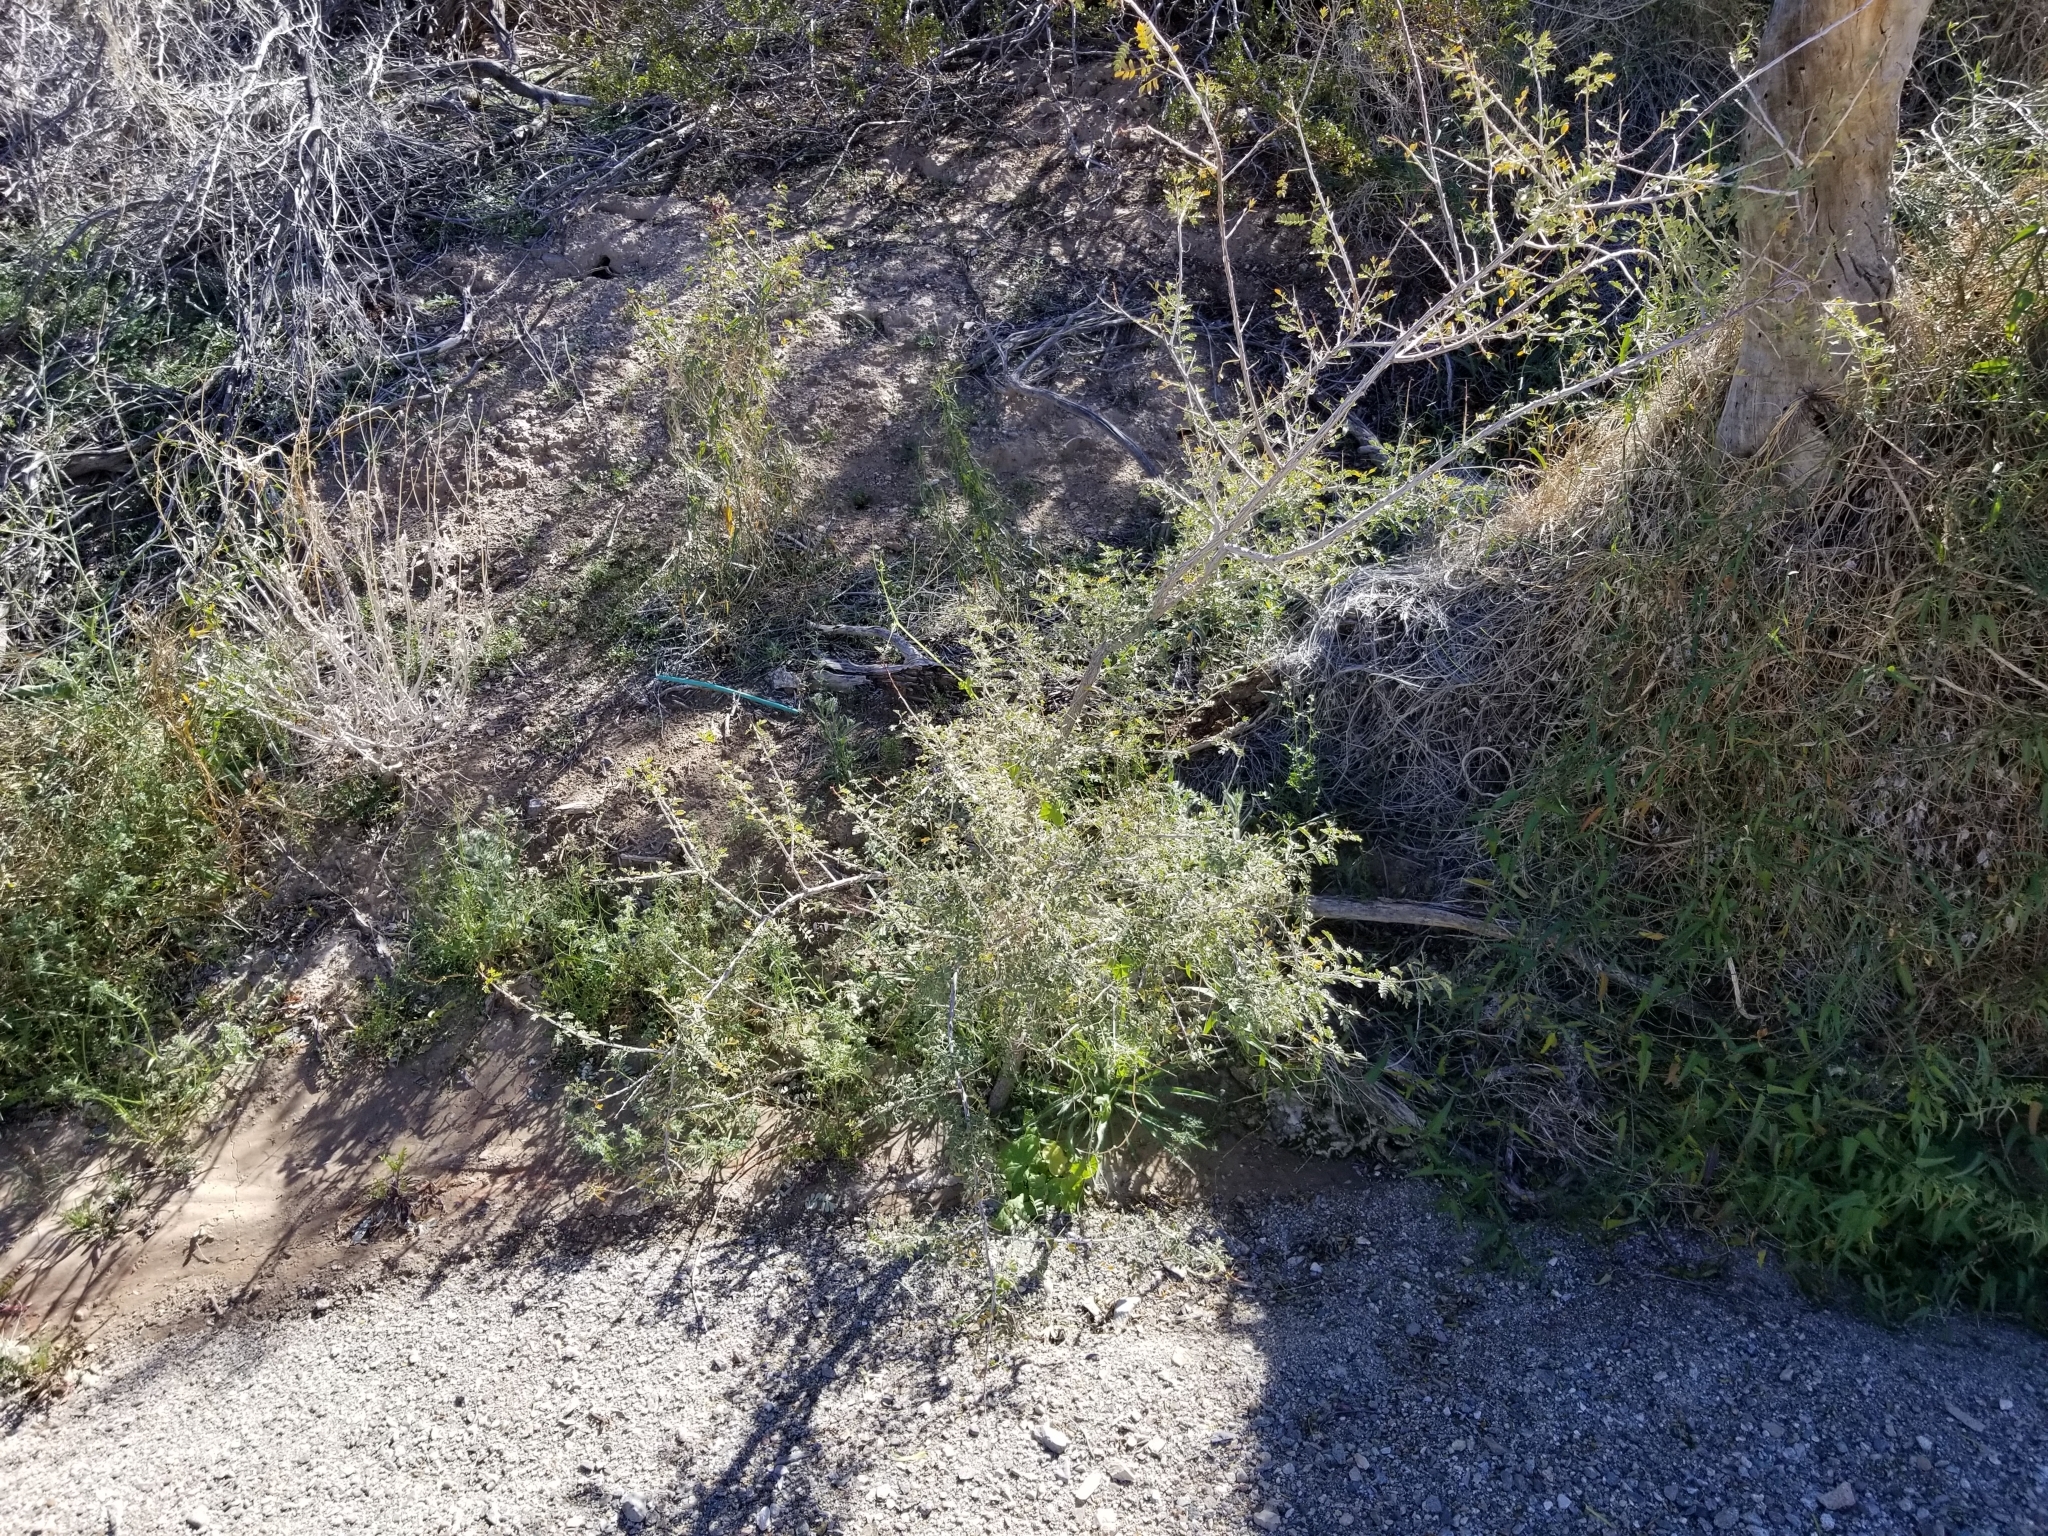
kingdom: Plantae
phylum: Tracheophyta
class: Magnoliopsida
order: Fabales
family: Fabaceae
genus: Senegalia
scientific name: Senegalia greggii
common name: Texas-mimosa
